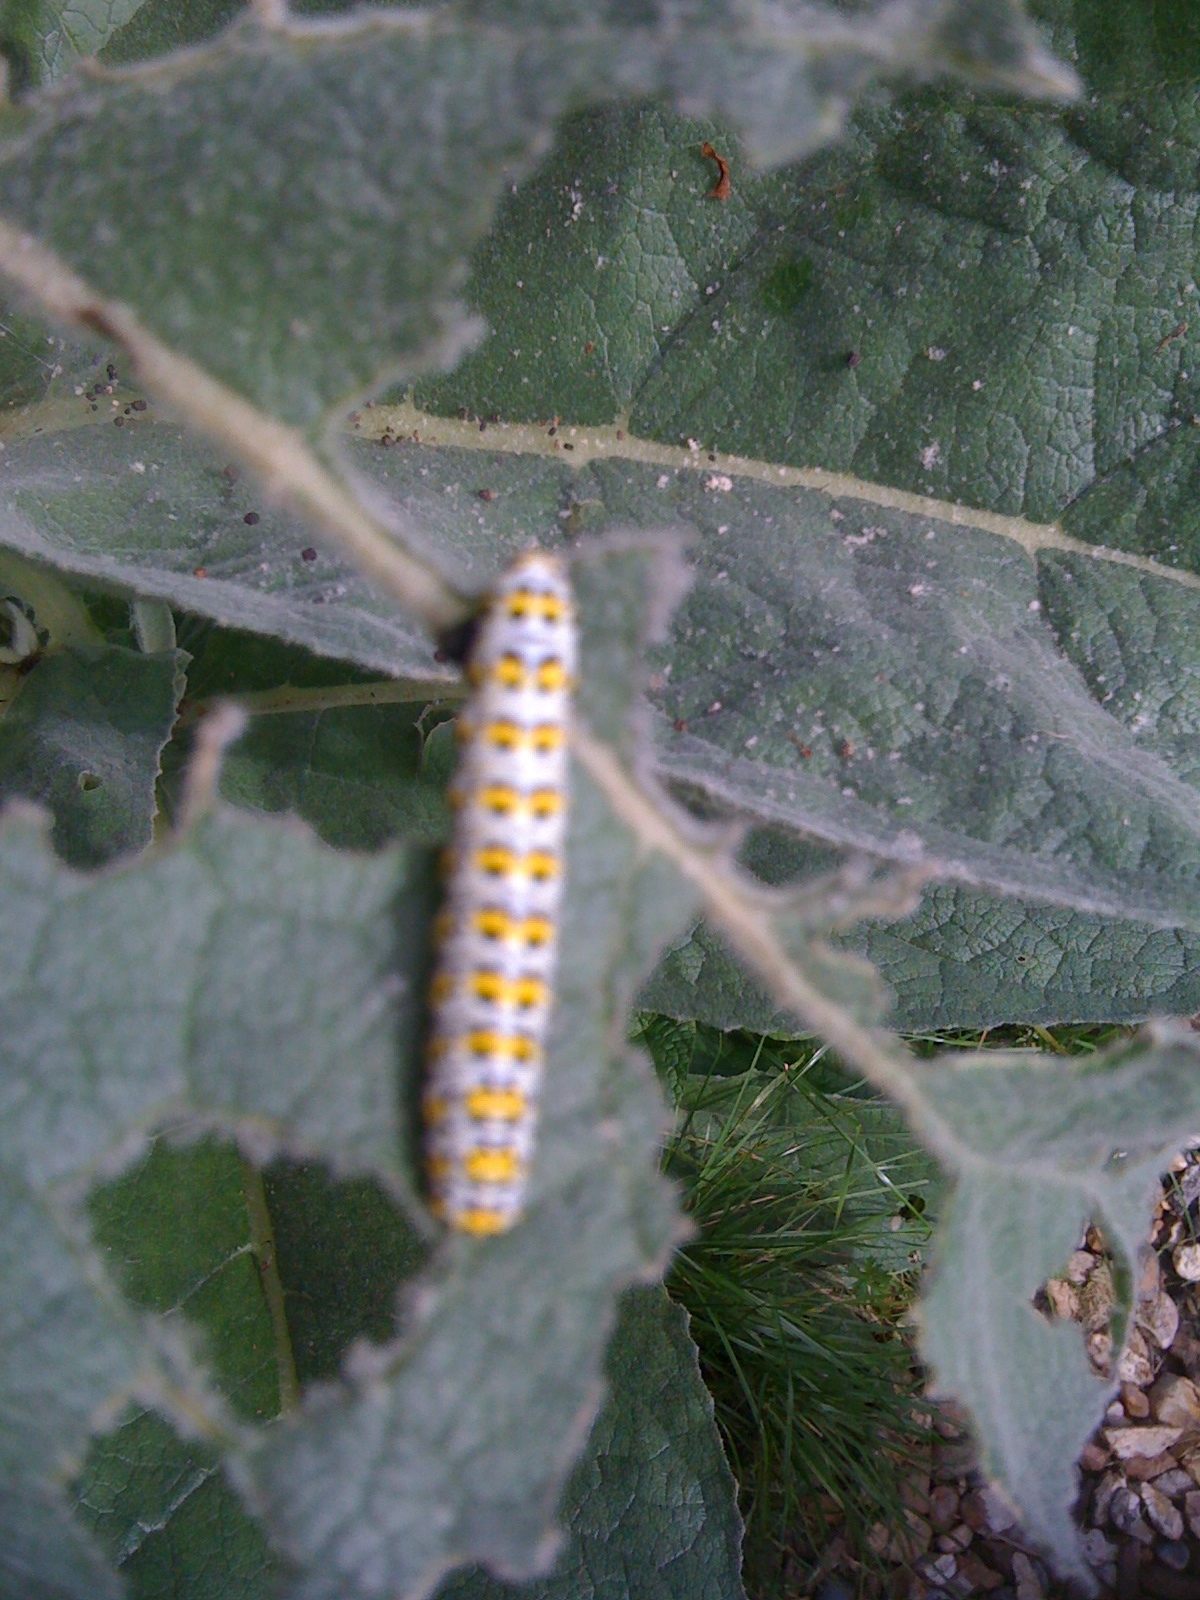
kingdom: Animalia
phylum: Arthropoda
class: Insecta
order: Lepidoptera
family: Noctuidae
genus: Cucullia
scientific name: Cucullia verbasci
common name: Mullein
